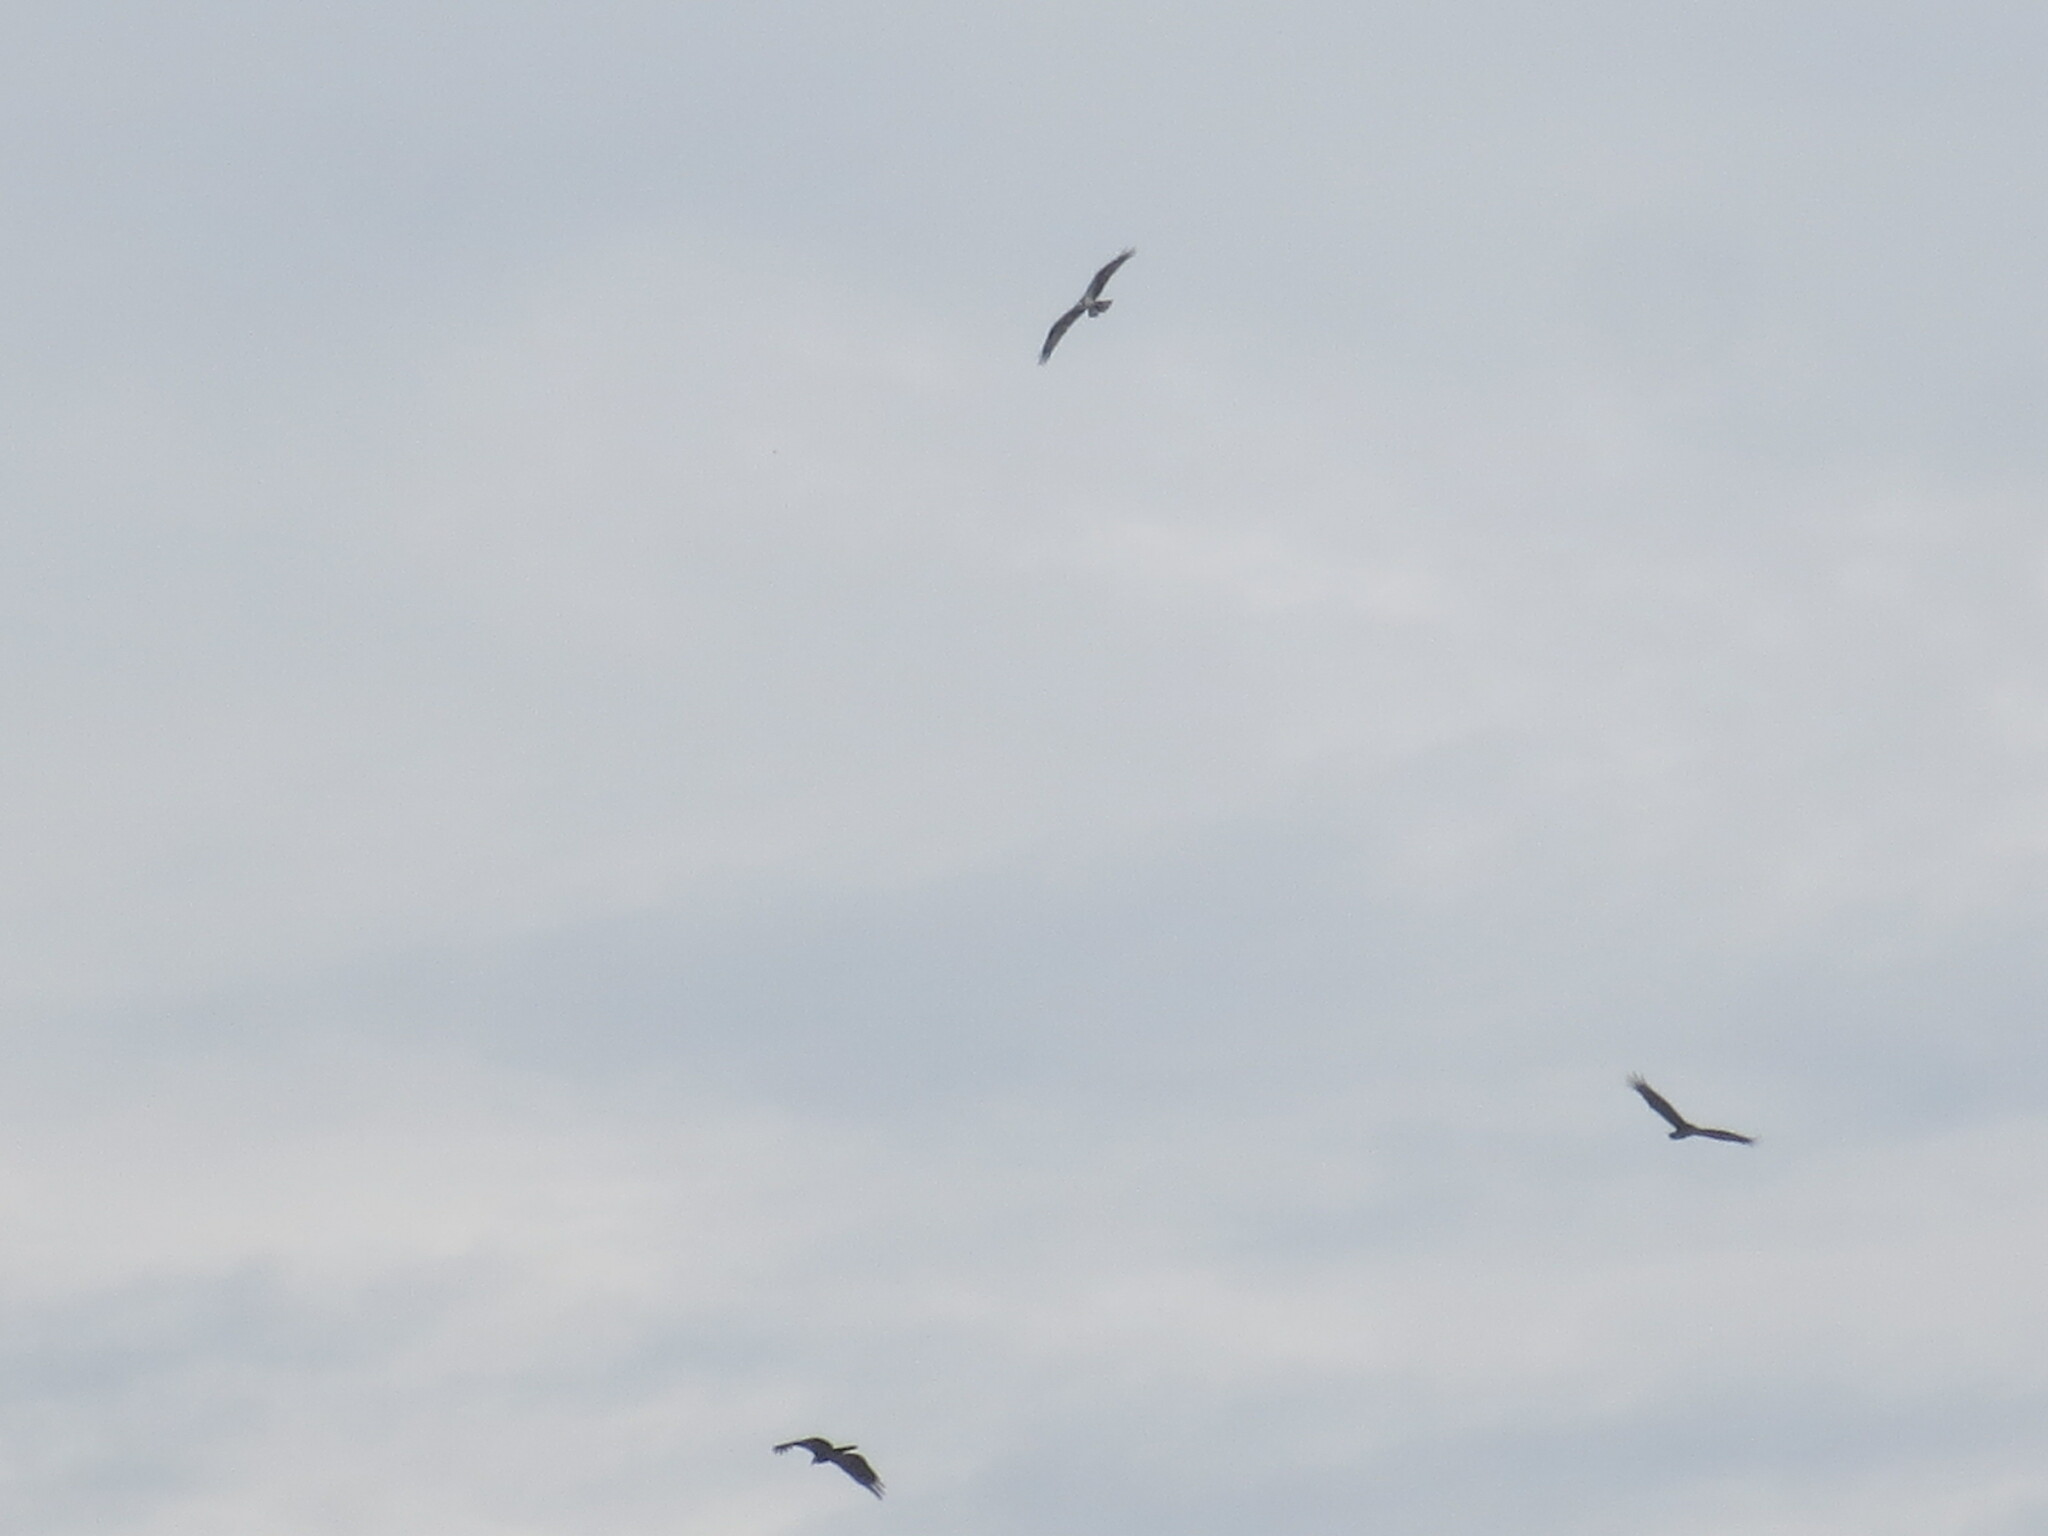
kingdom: Animalia
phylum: Chordata
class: Aves
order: Accipitriformes
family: Pandionidae
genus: Pandion
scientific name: Pandion haliaetus
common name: Osprey
